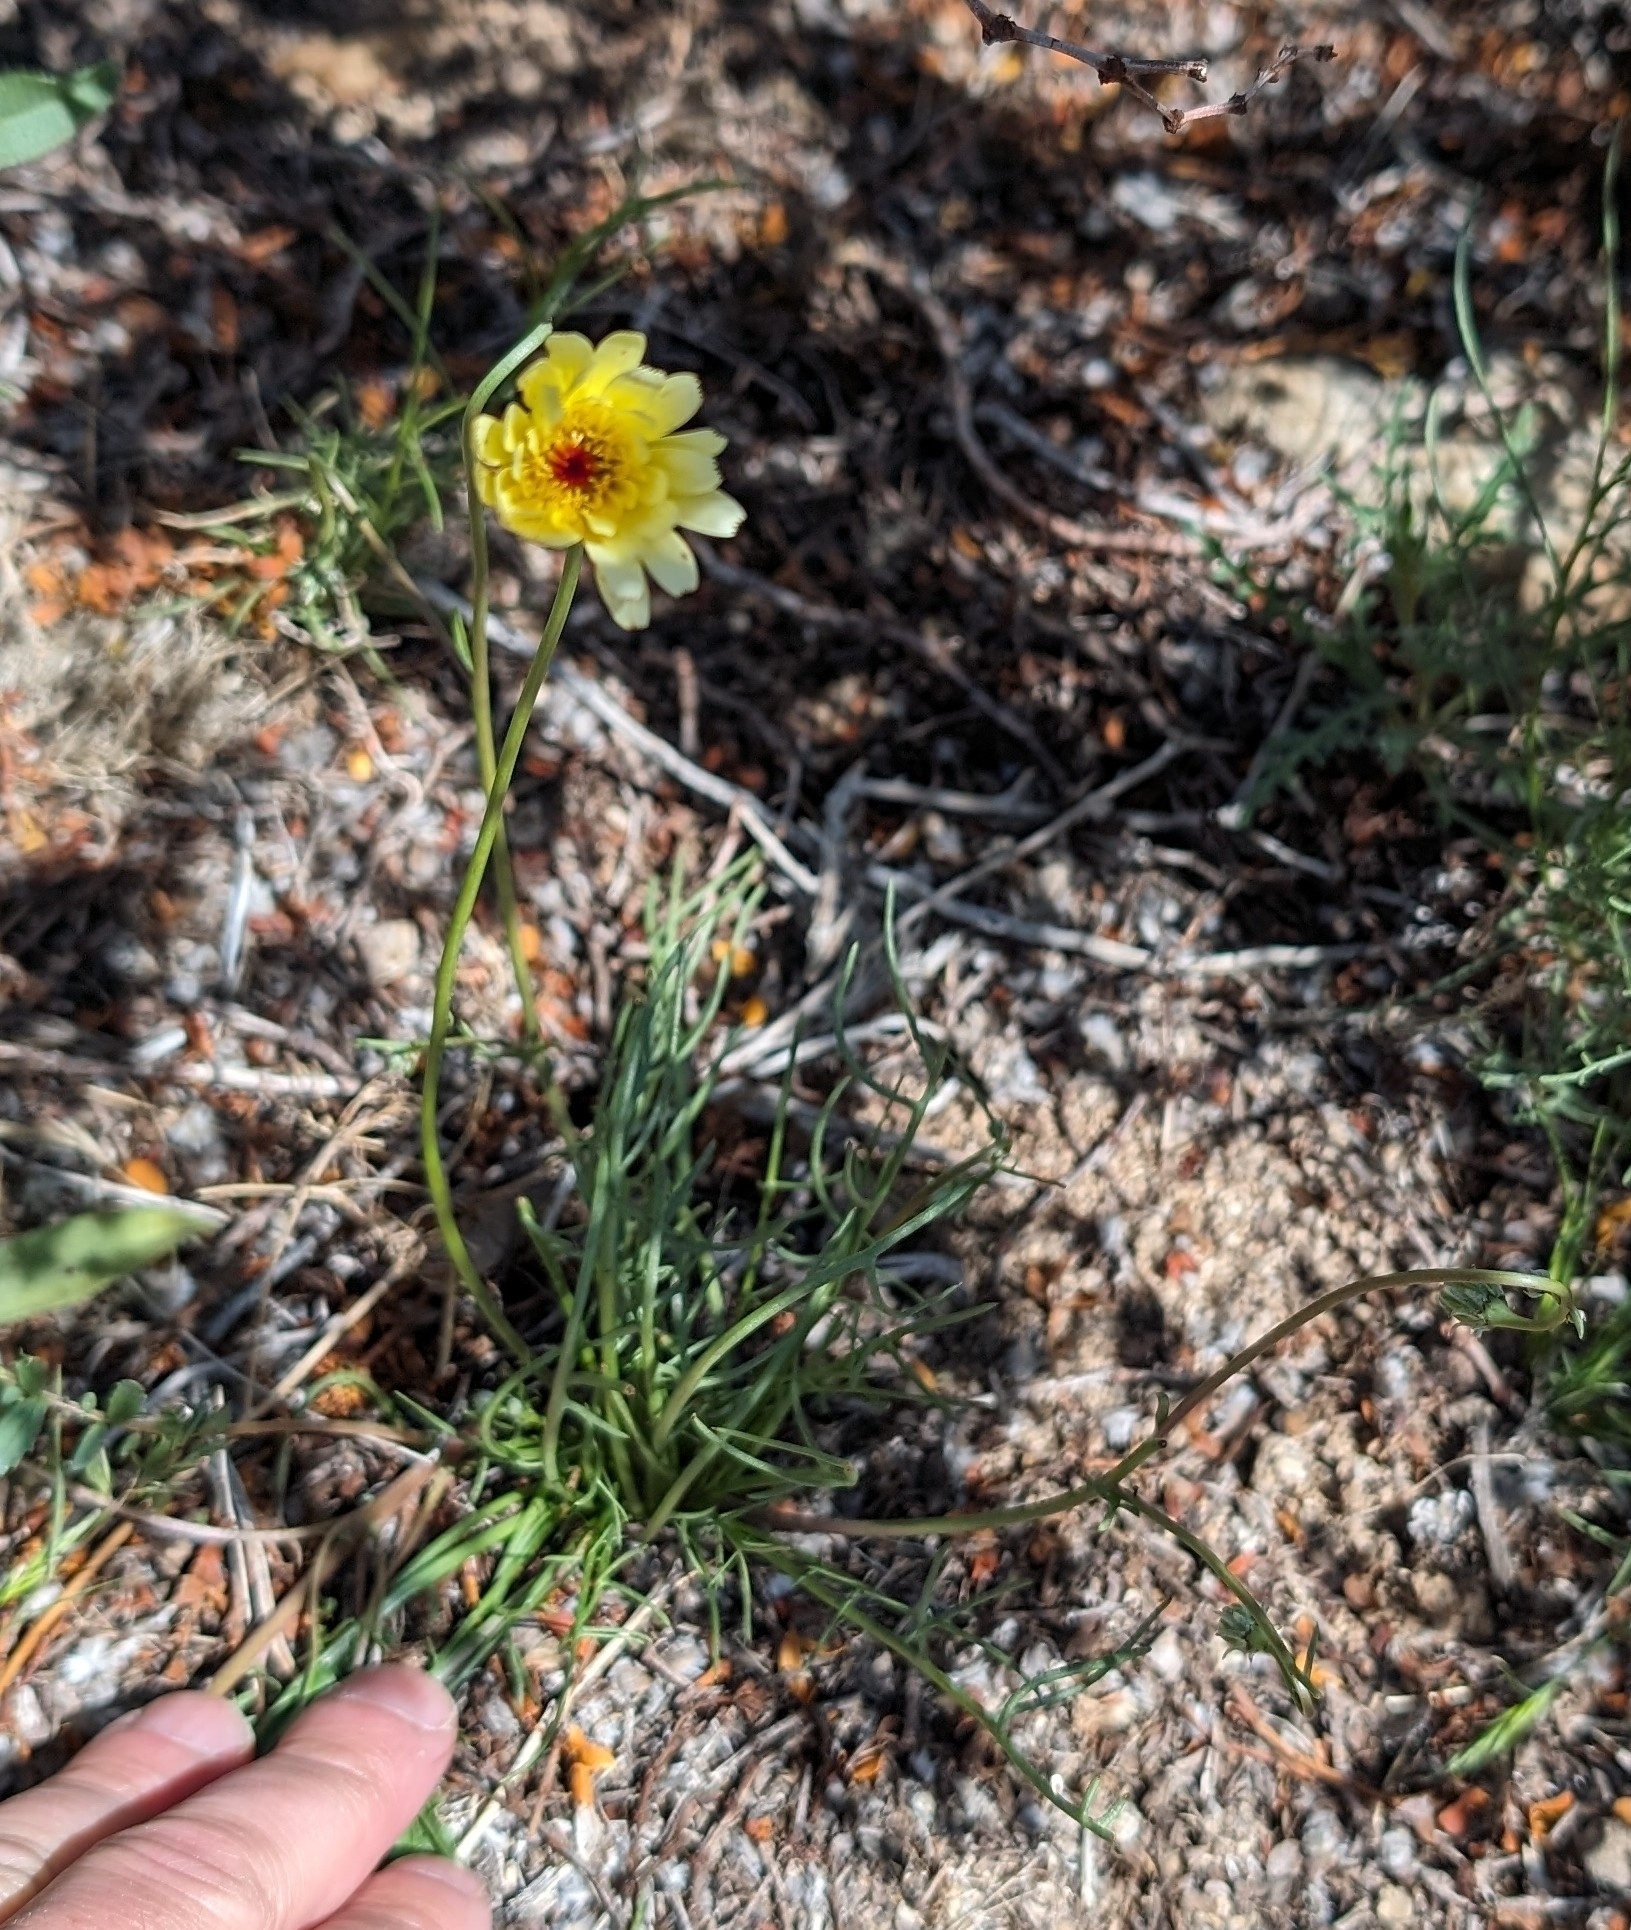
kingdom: Plantae
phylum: Tracheophyta
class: Magnoliopsida
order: Asterales
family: Asteraceae
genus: Malacothrix
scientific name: Malacothrix glabrata
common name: Smooth desert-dandelion
